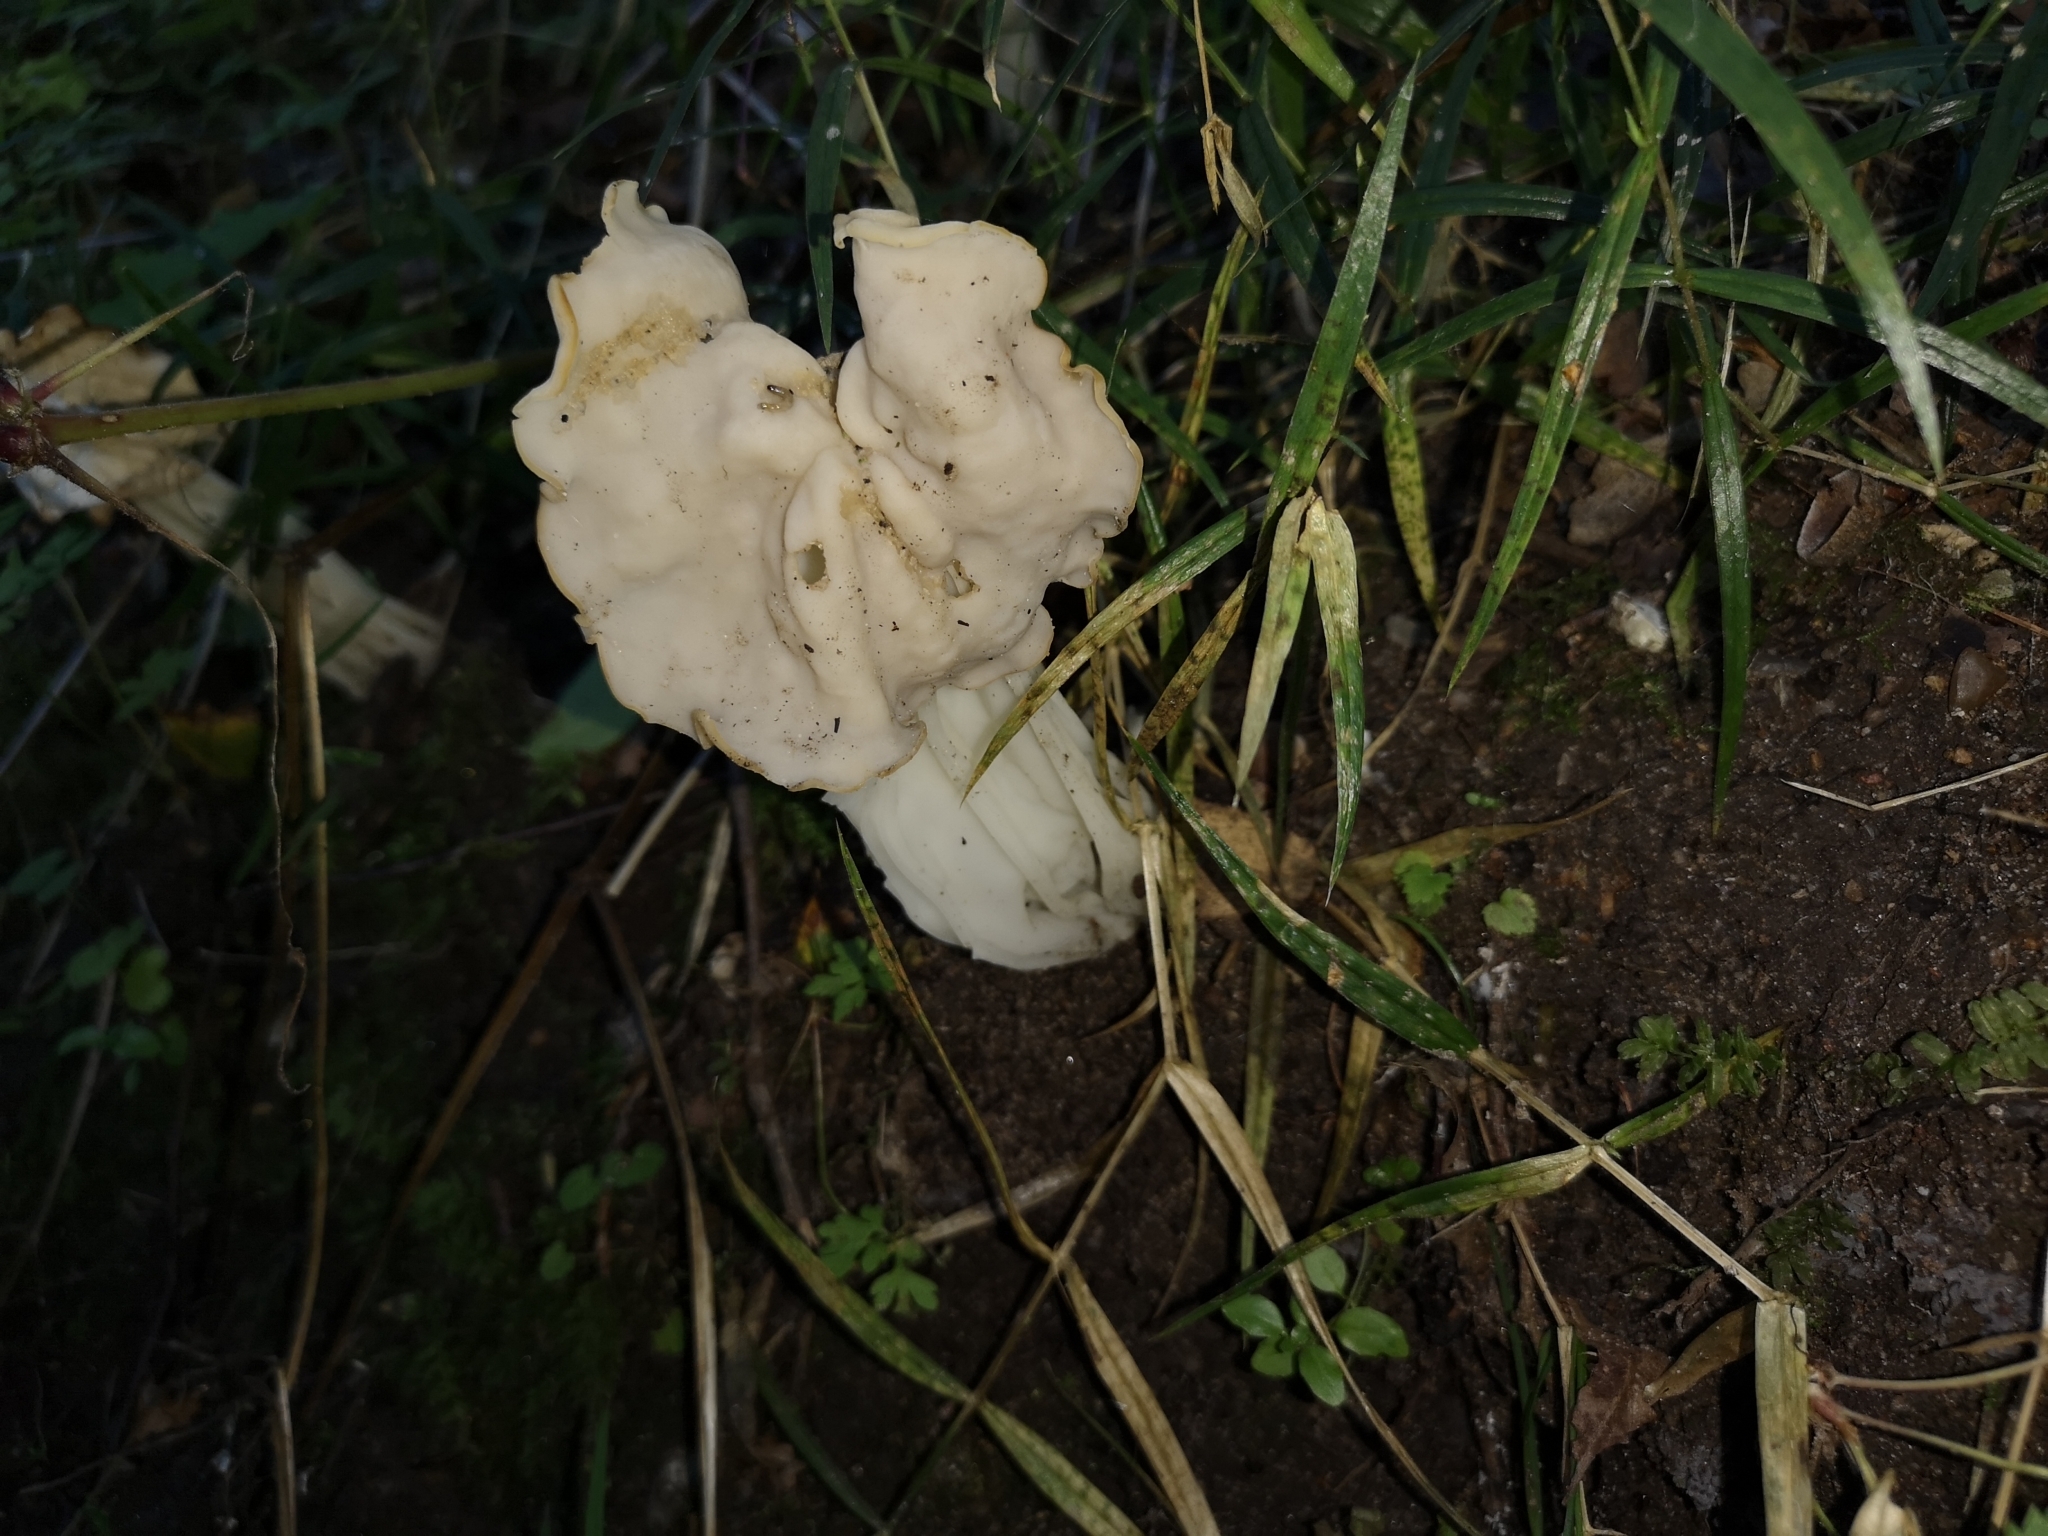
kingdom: Fungi
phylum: Ascomycota
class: Pezizomycetes
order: Pezizales
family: Helvellaceae
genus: Helvella
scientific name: Helvella crispa
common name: White saddle
